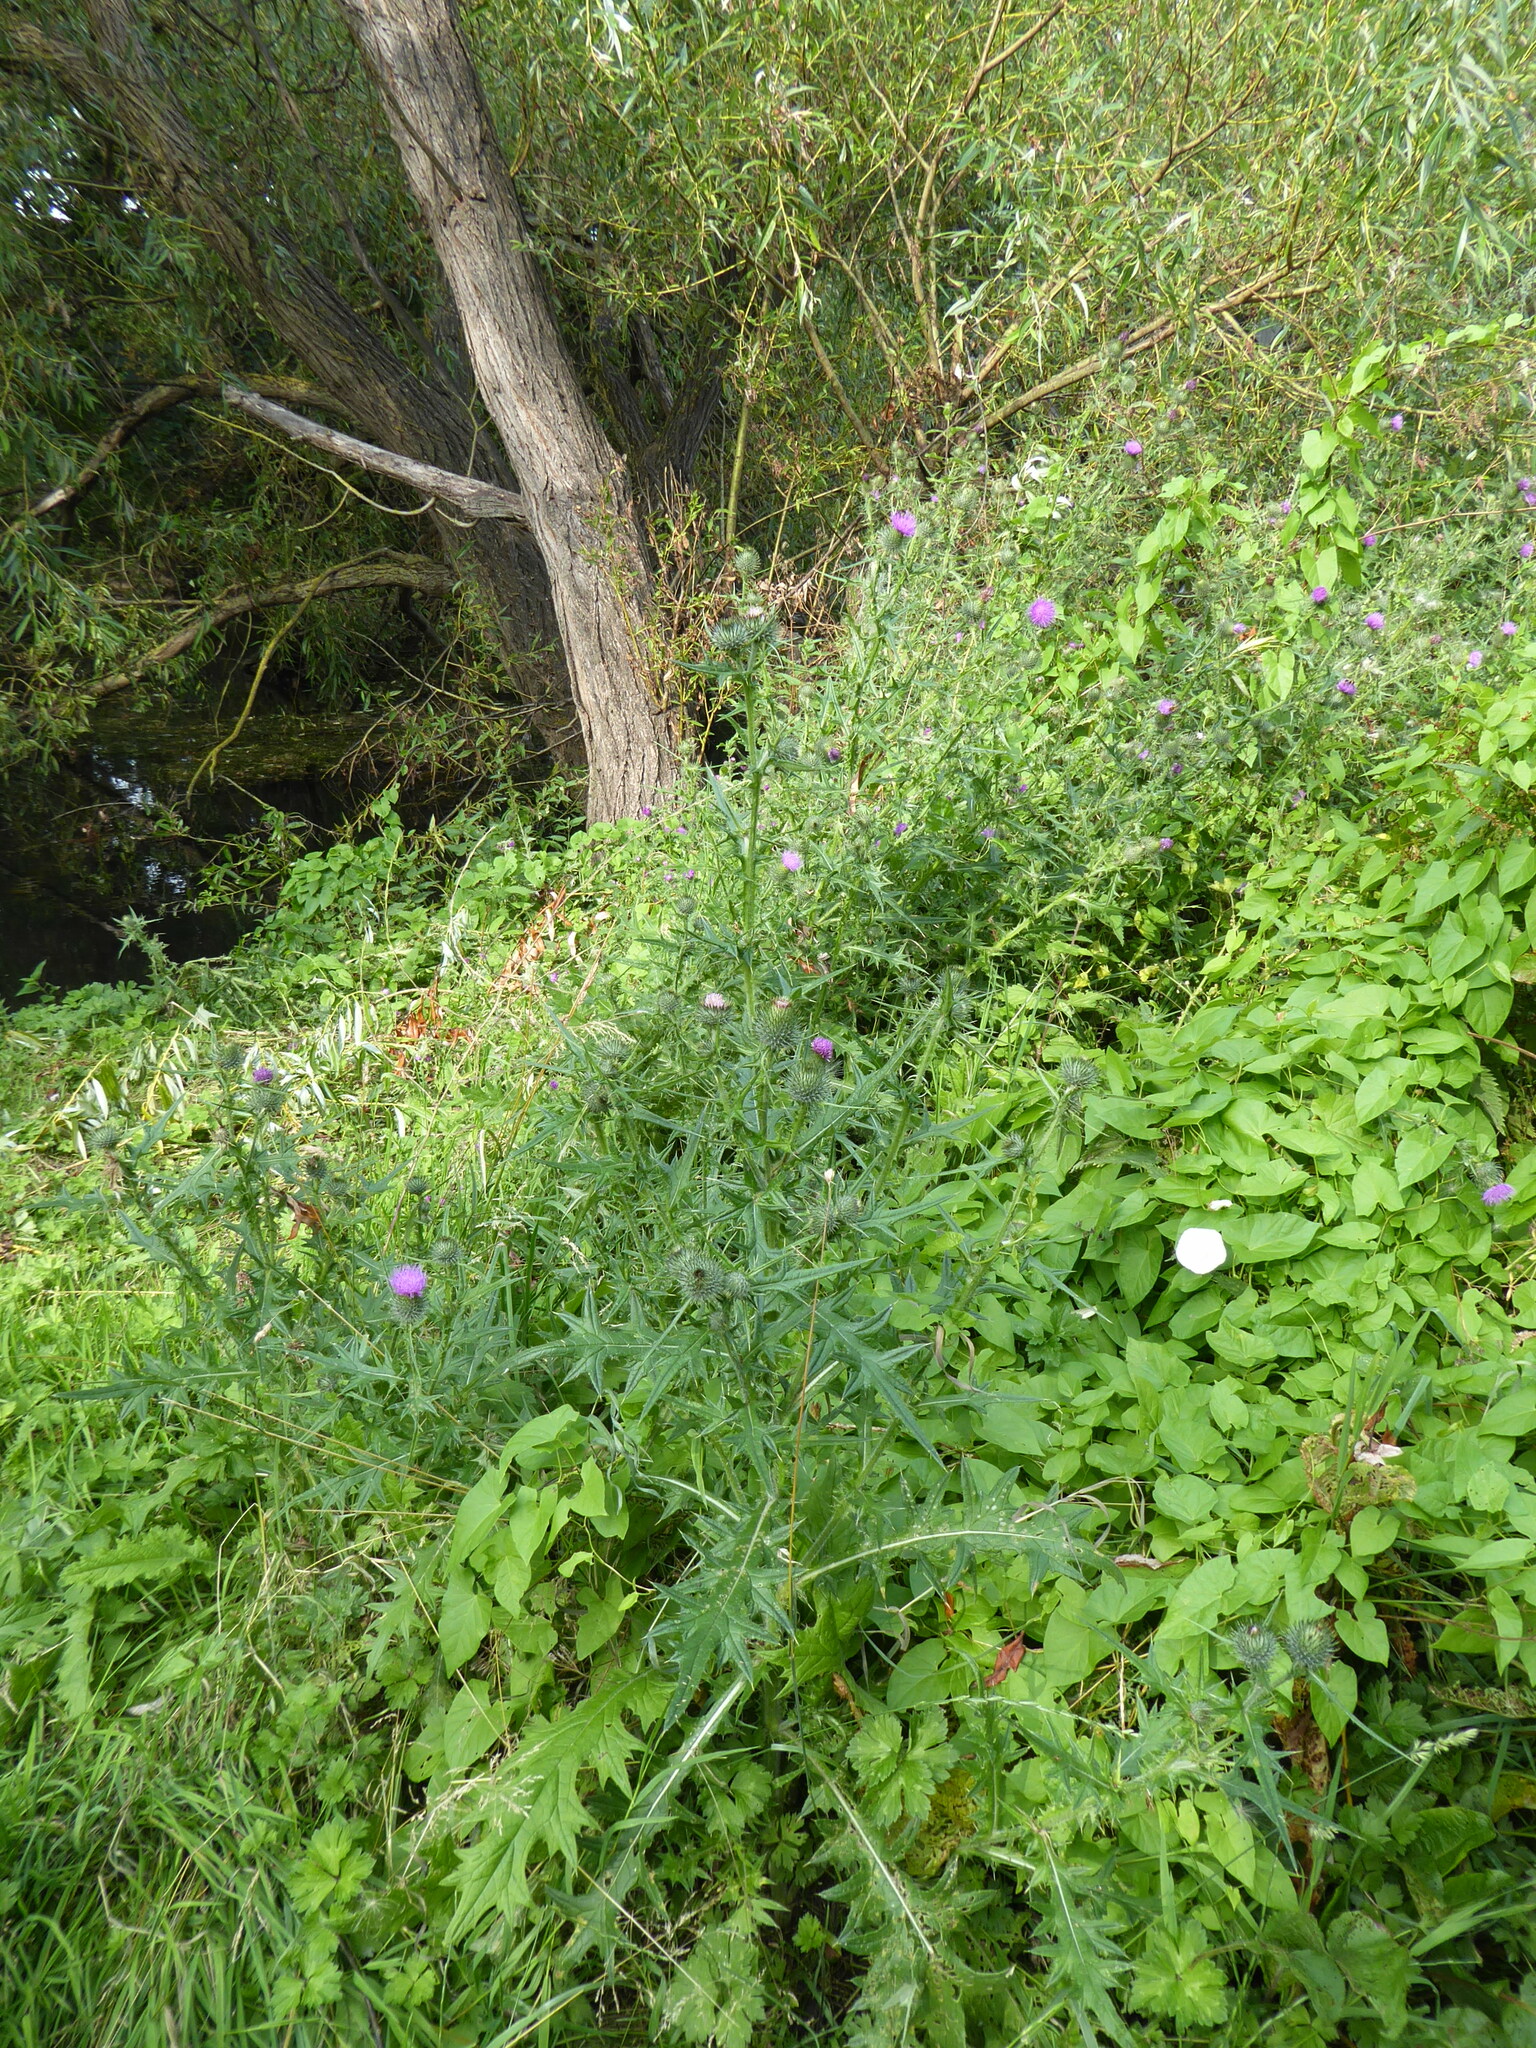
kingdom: Plantae
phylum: Tracheophyta
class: Magnoliopsida
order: Asterales
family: Asteraceae
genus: Cirsium
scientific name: Cirsium vulgare
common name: Bull thistle
